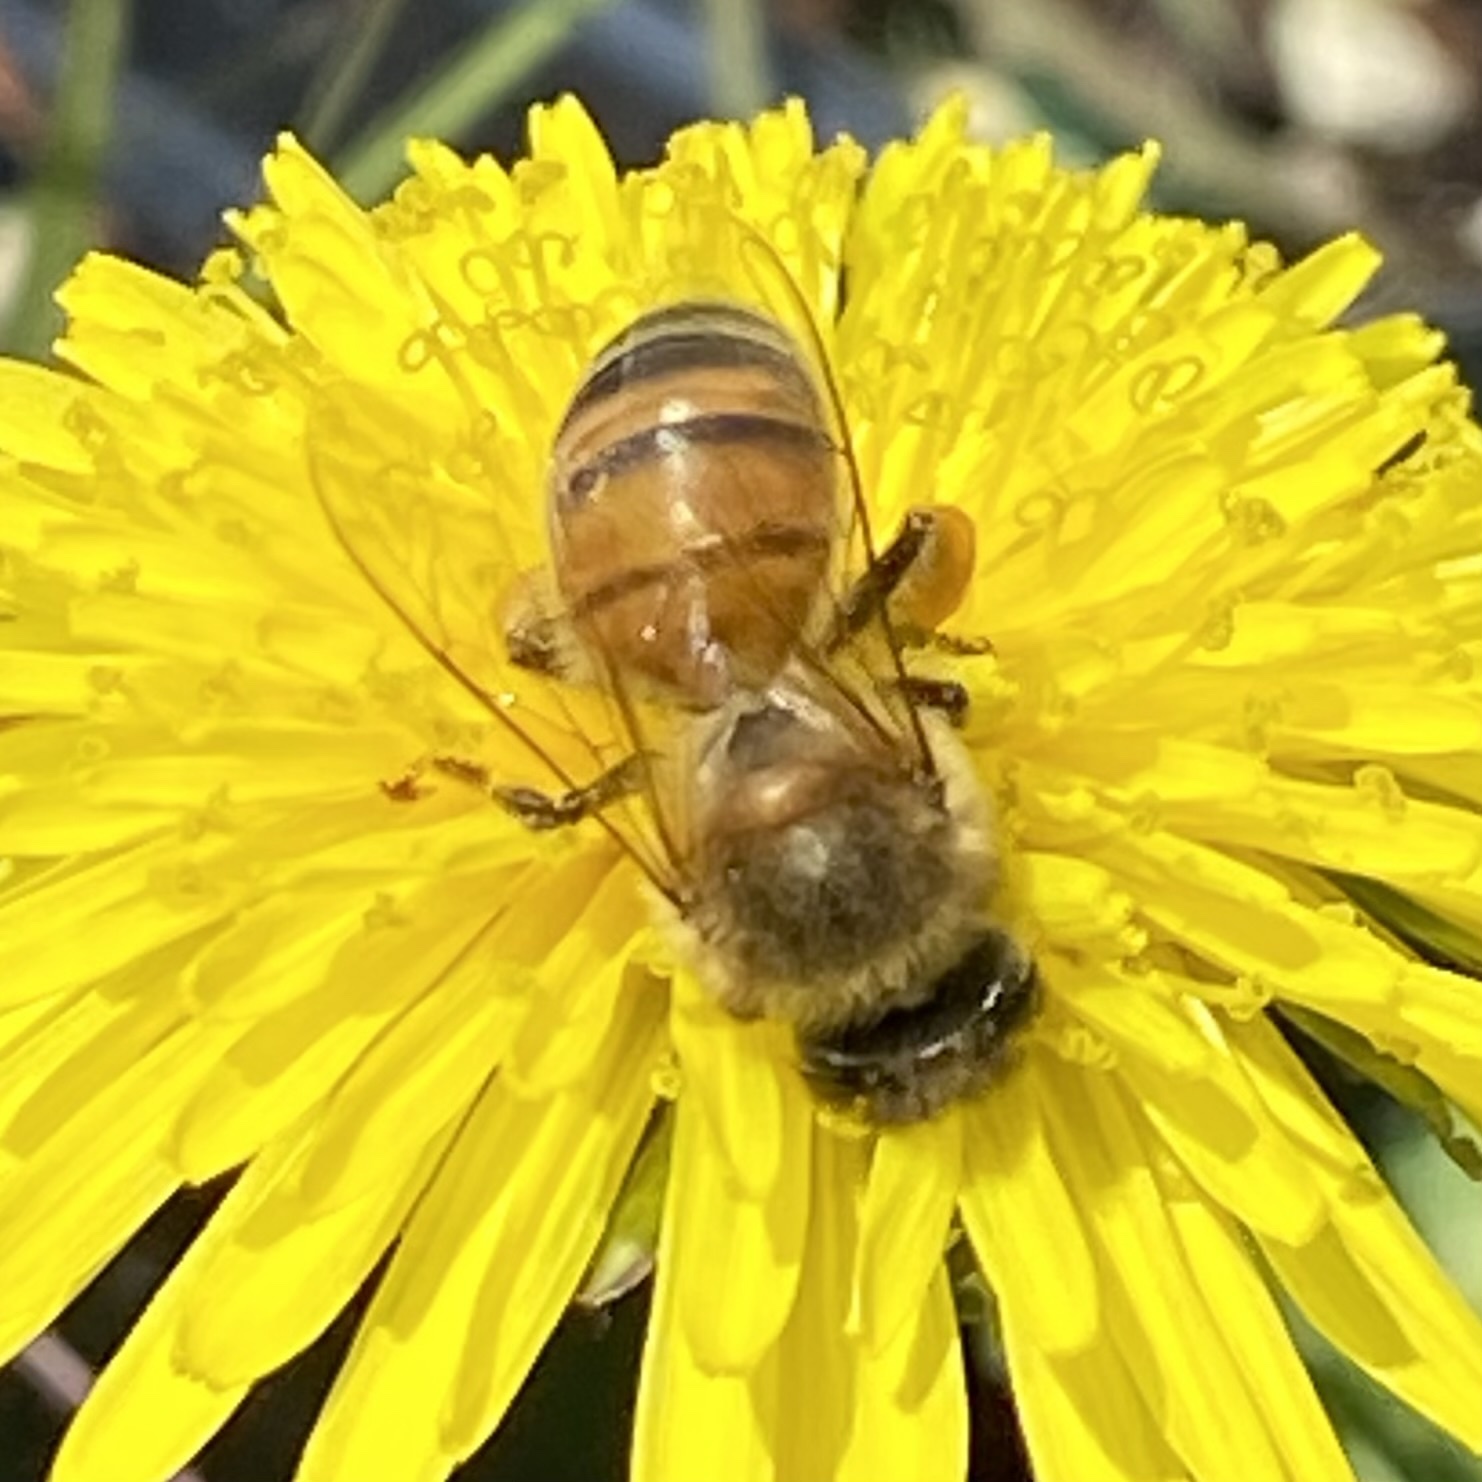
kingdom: Animalia
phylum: Arthropoda
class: Insecta
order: Hymenoptera
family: Apidae
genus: Apis
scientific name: Apis mellifera
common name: Honey bee
